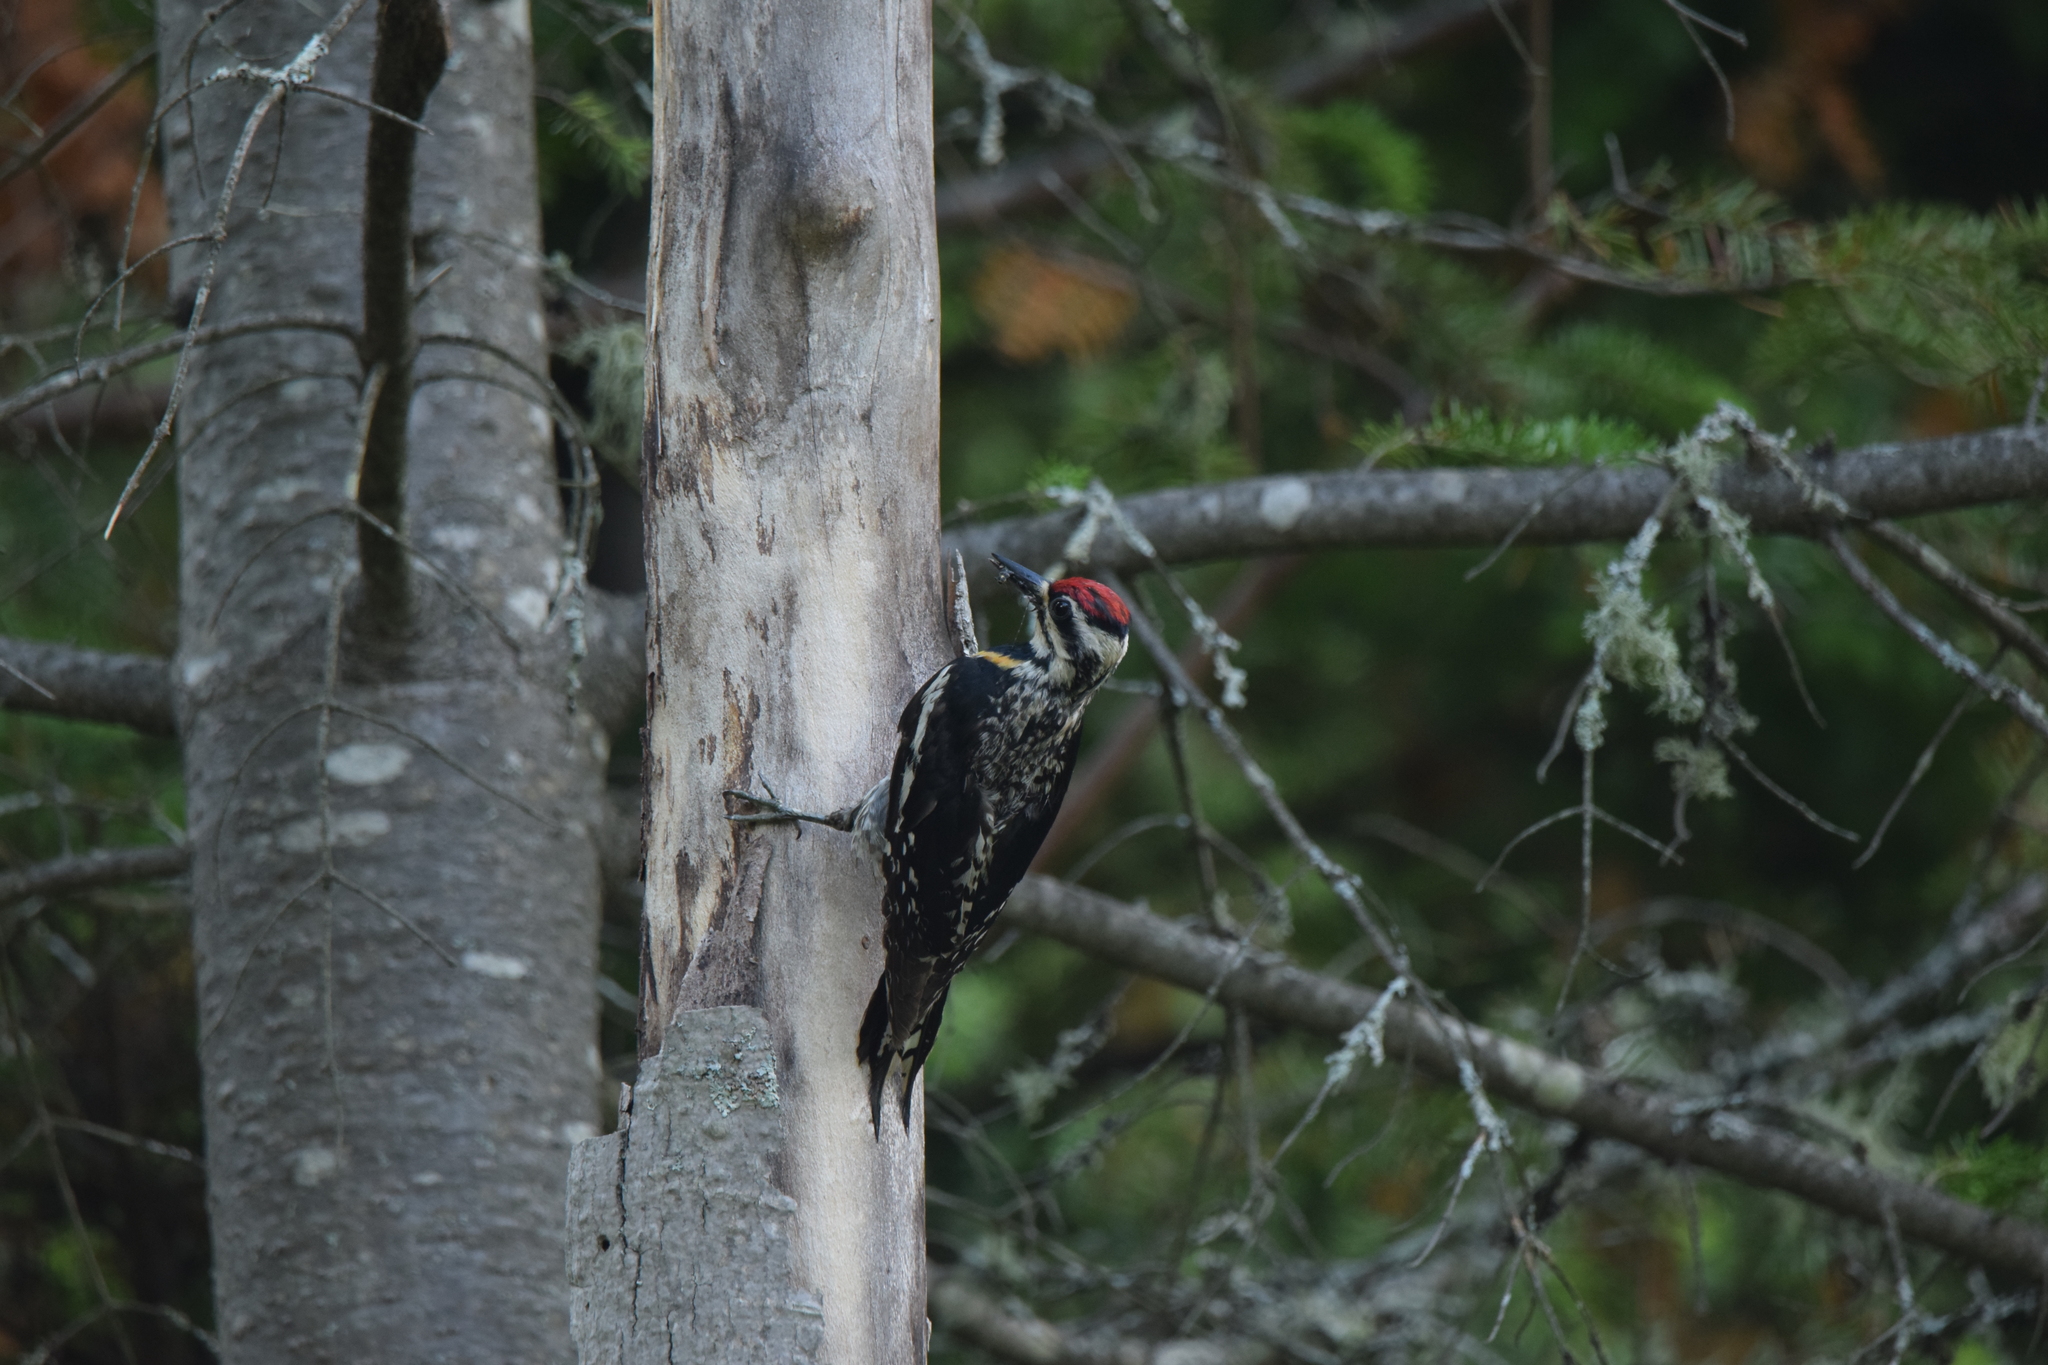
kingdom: Animalia
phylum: Chordata
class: Aves
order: Piciformes
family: Picidae
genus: Sphyrapicus
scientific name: Sphyrapicus varius
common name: Yellow-bellied sapsucker
